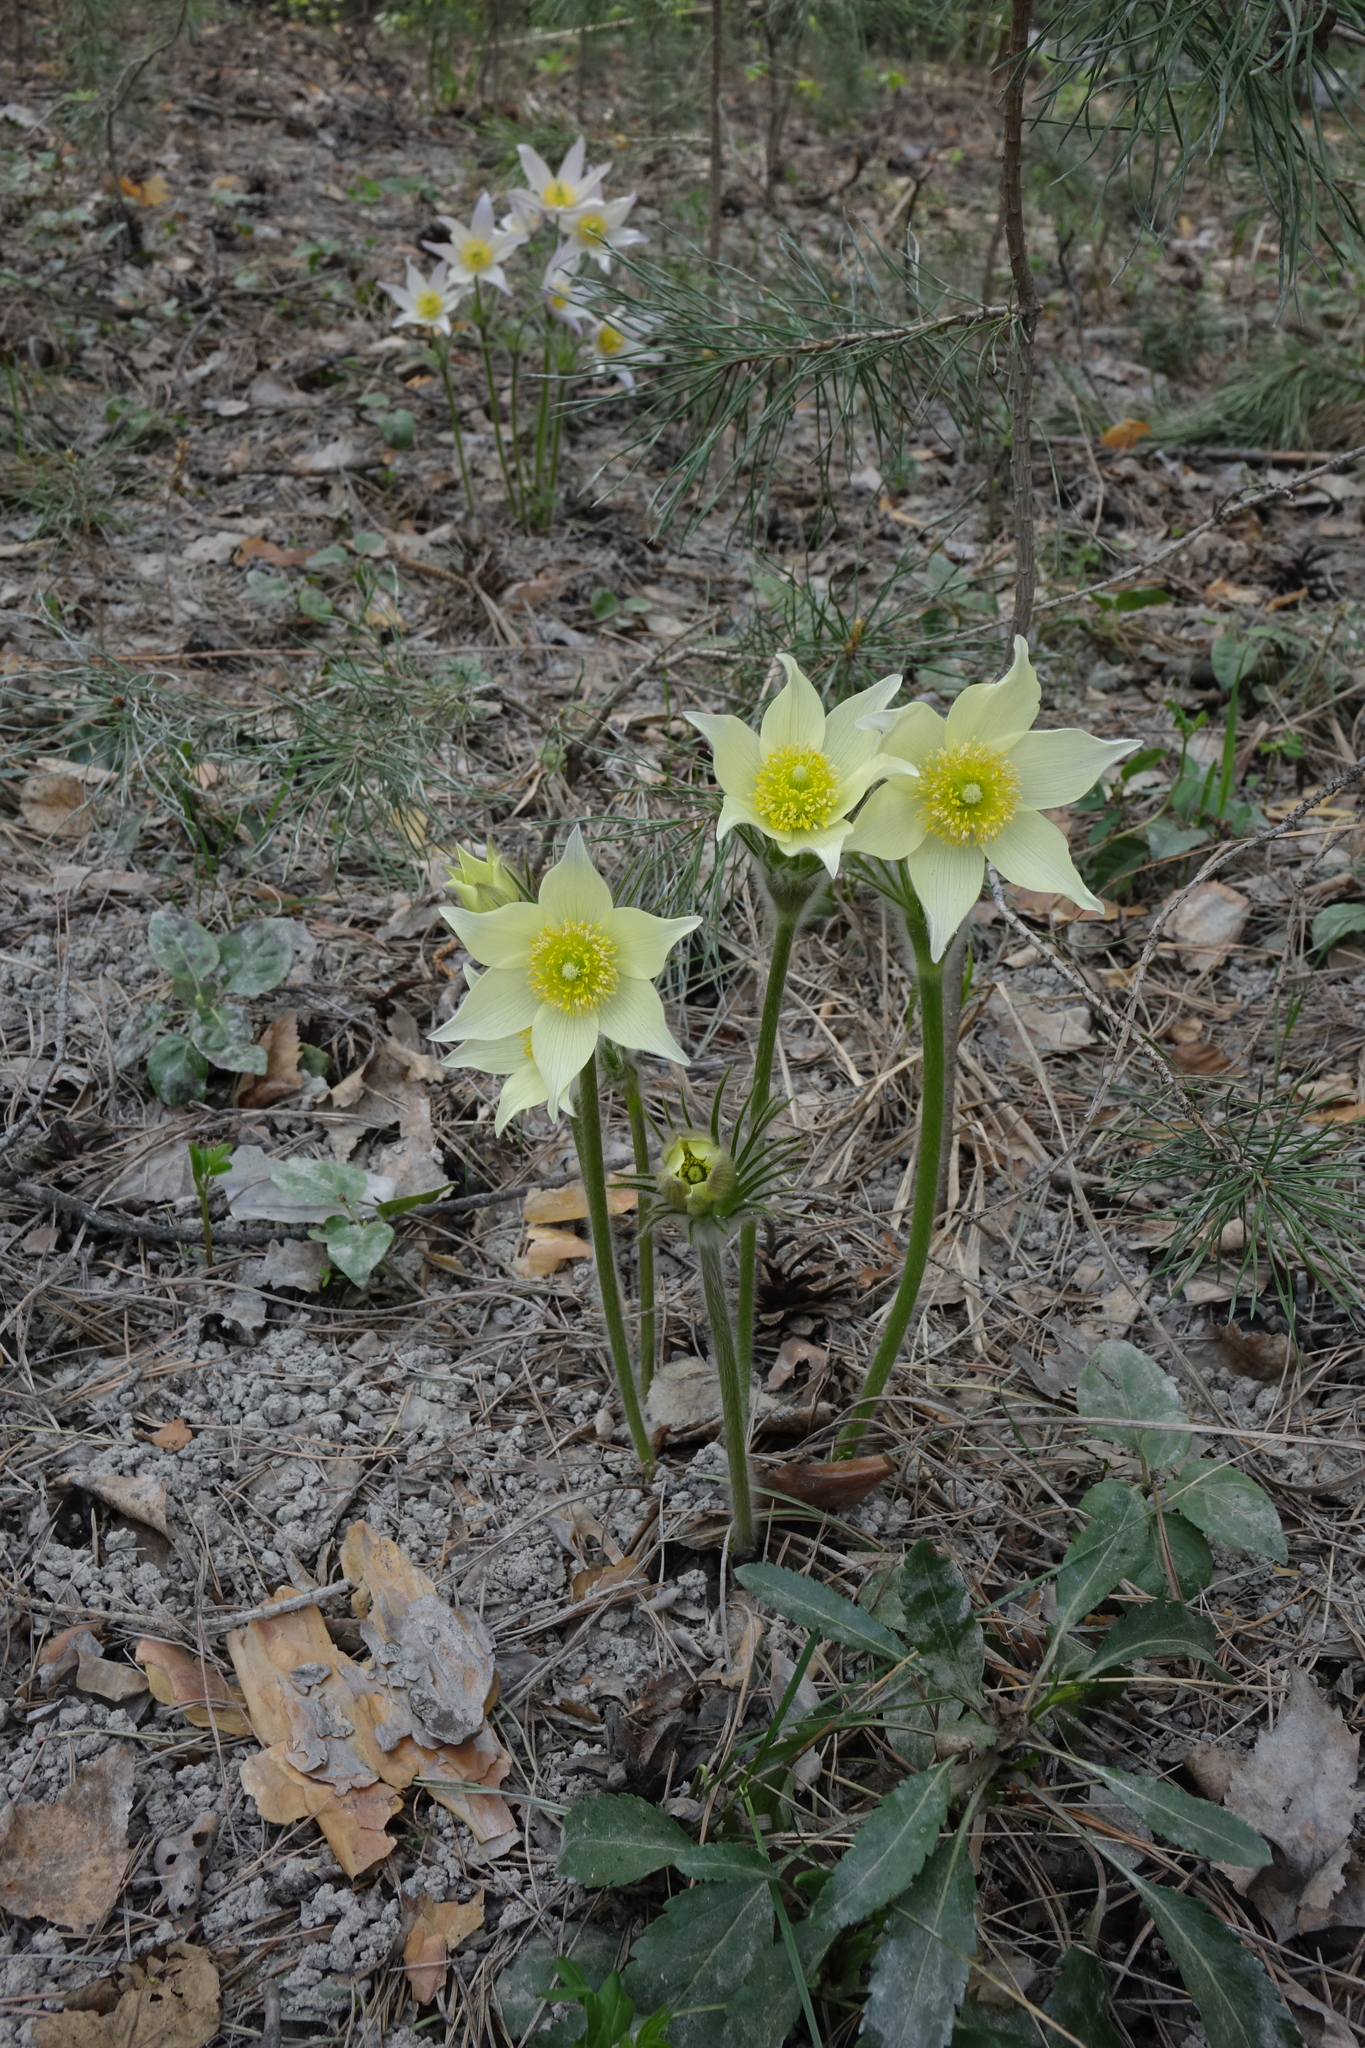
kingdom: Plantae
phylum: Tracheophyta
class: Magnoliopsida
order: Ranunculales
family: Ranunculaceae
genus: Pulsatilla
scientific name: Pulsatilla patens
